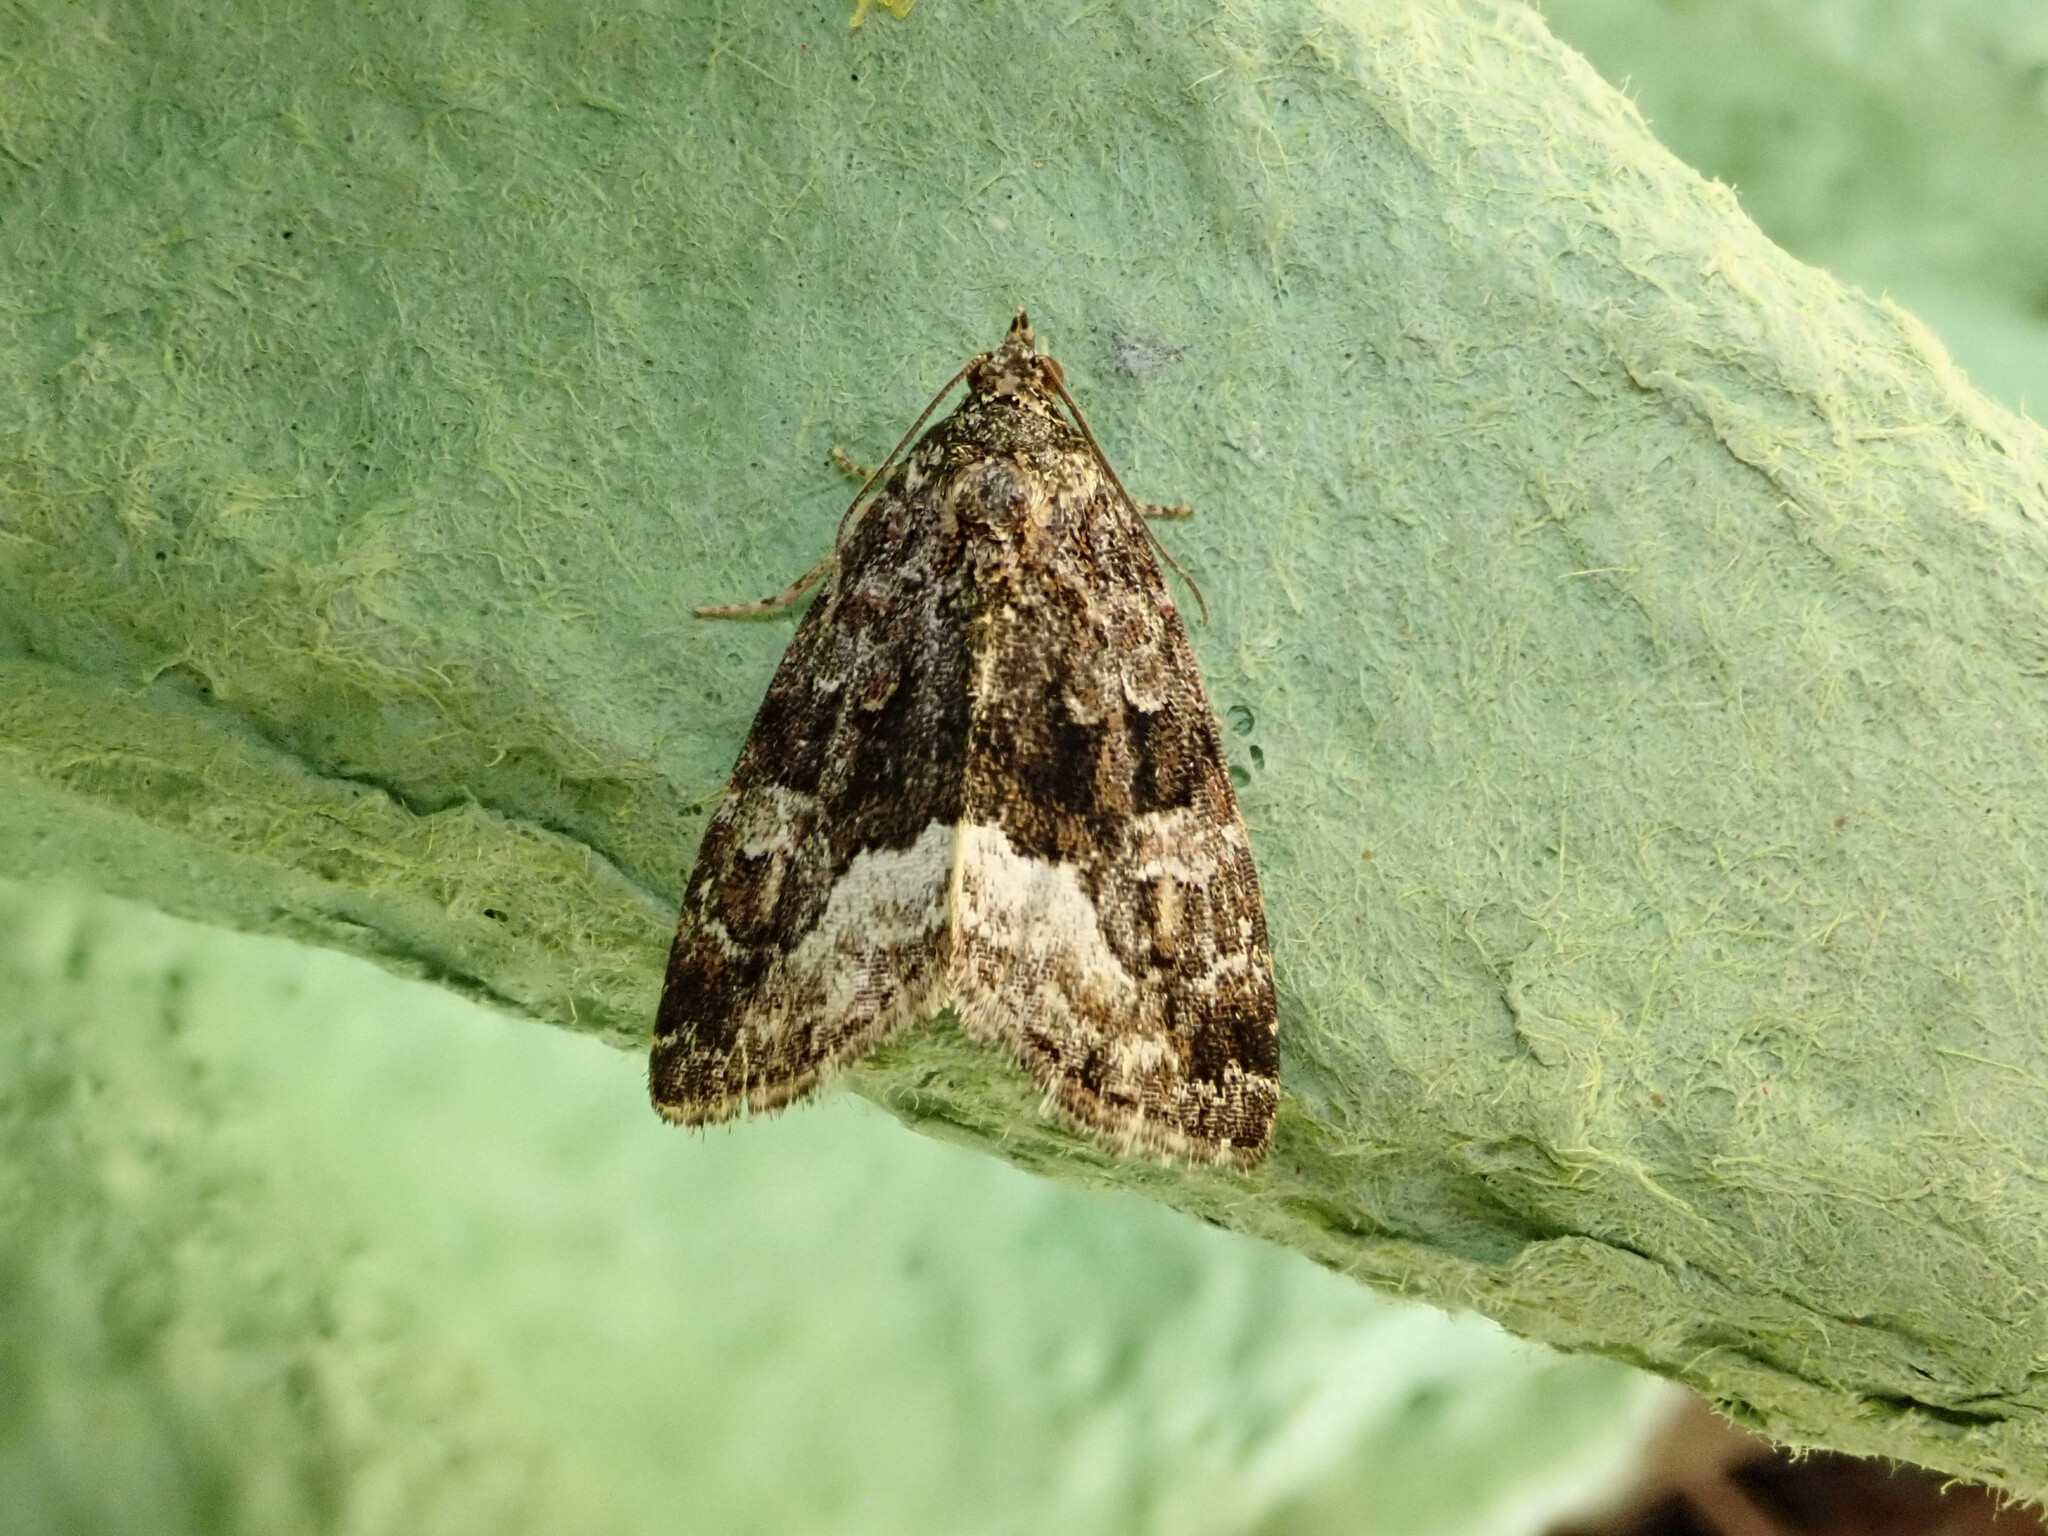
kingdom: Animalia
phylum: Arthropoda
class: Insecta
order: Lepidoptera
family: Noctuidae
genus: Deltote
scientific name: Deltote pygarga
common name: Marbled white spot
